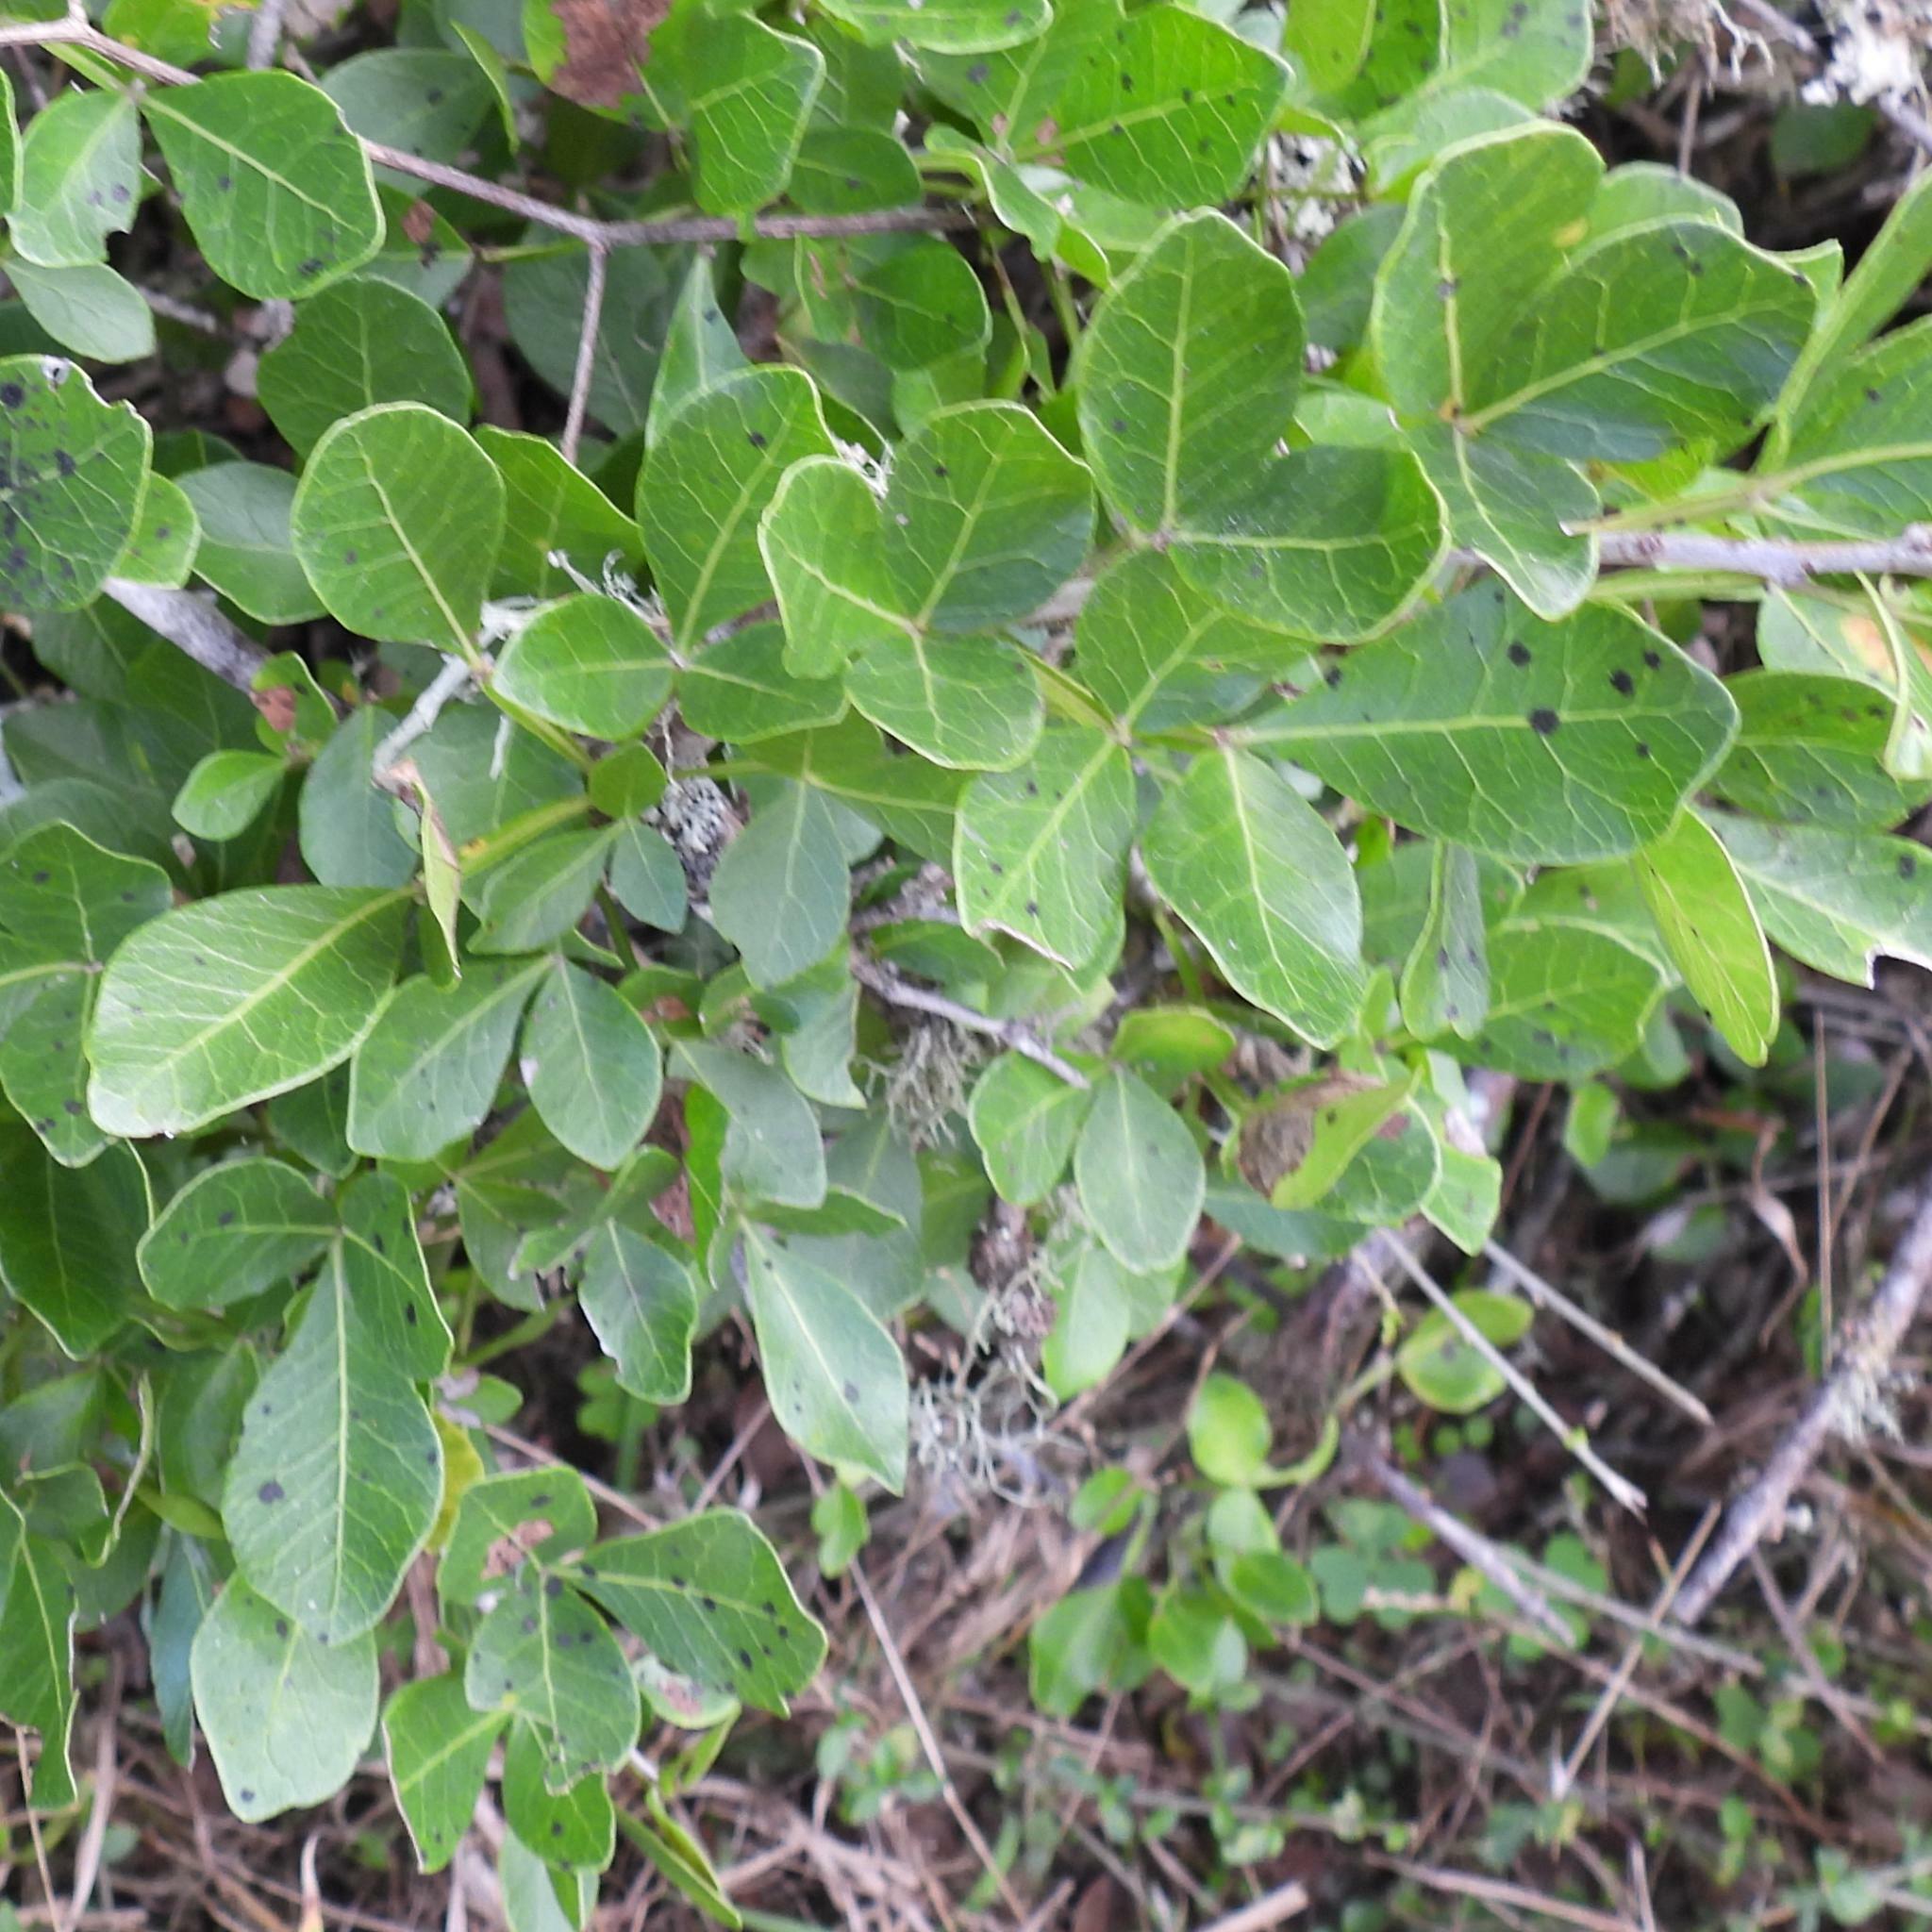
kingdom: Plantae
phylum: Tracheophyta
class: Magnoliopsida
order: Sapindales
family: Anacardiaceae
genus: Searsia
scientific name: Searsia pterota
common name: Winged currant
